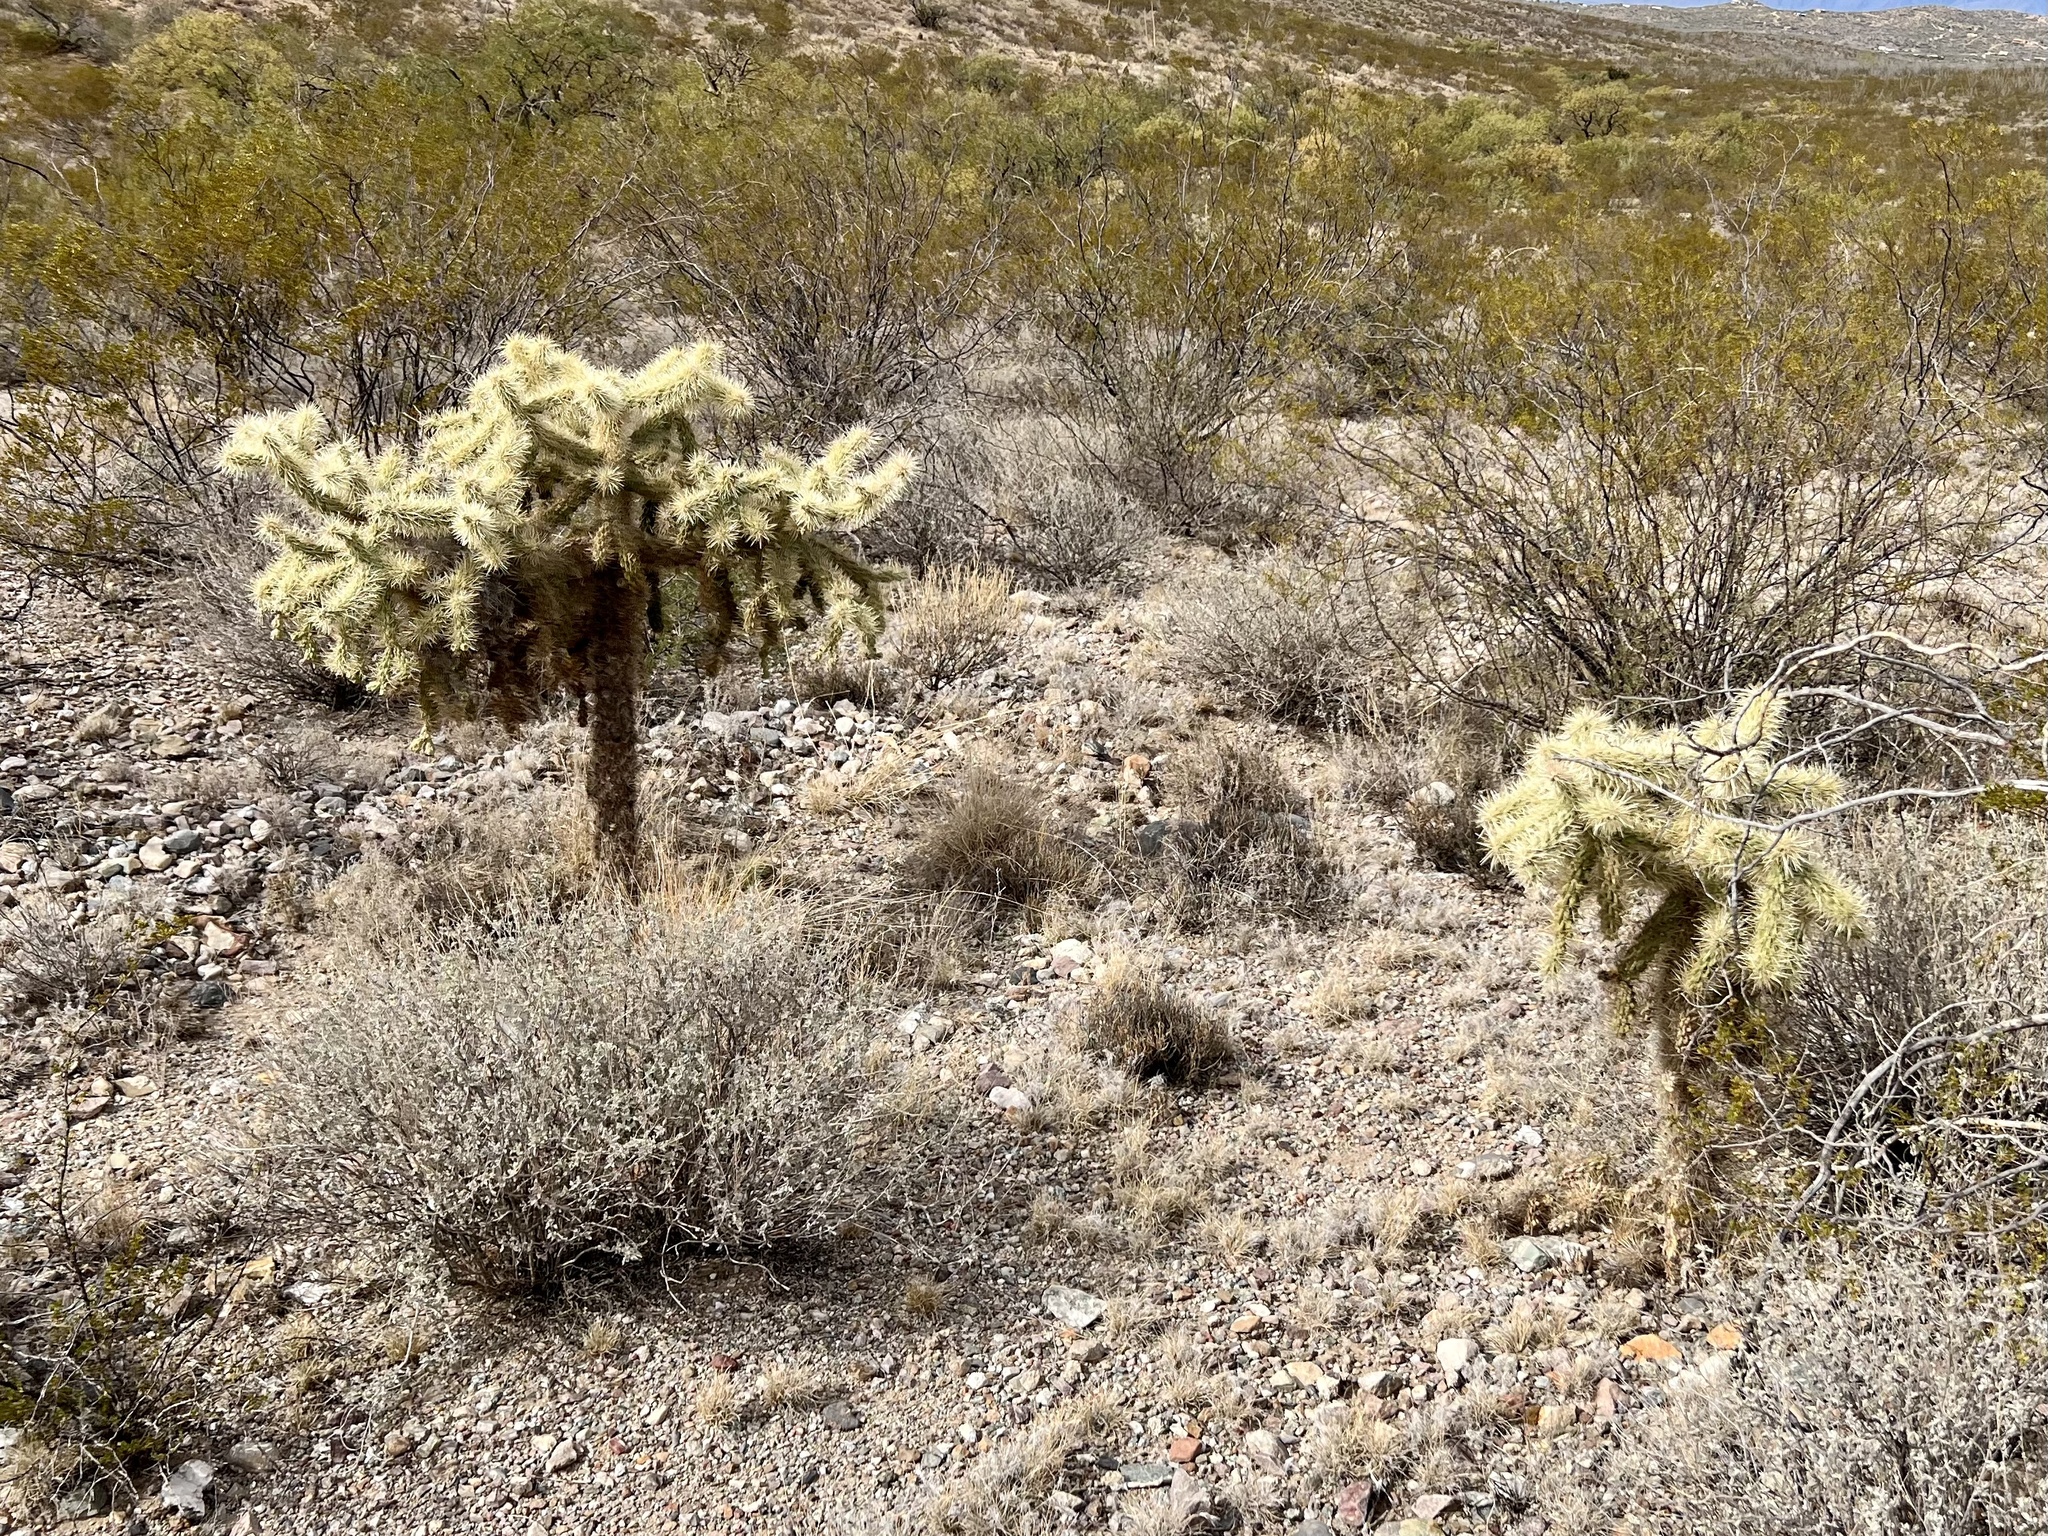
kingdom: Plantae
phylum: Tracheophyta
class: Magnoliopsida
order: Caryophyllales
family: Cactaceae
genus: Cylindropuntia
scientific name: Cylindropuntia fulgida
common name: Jumping cholla
